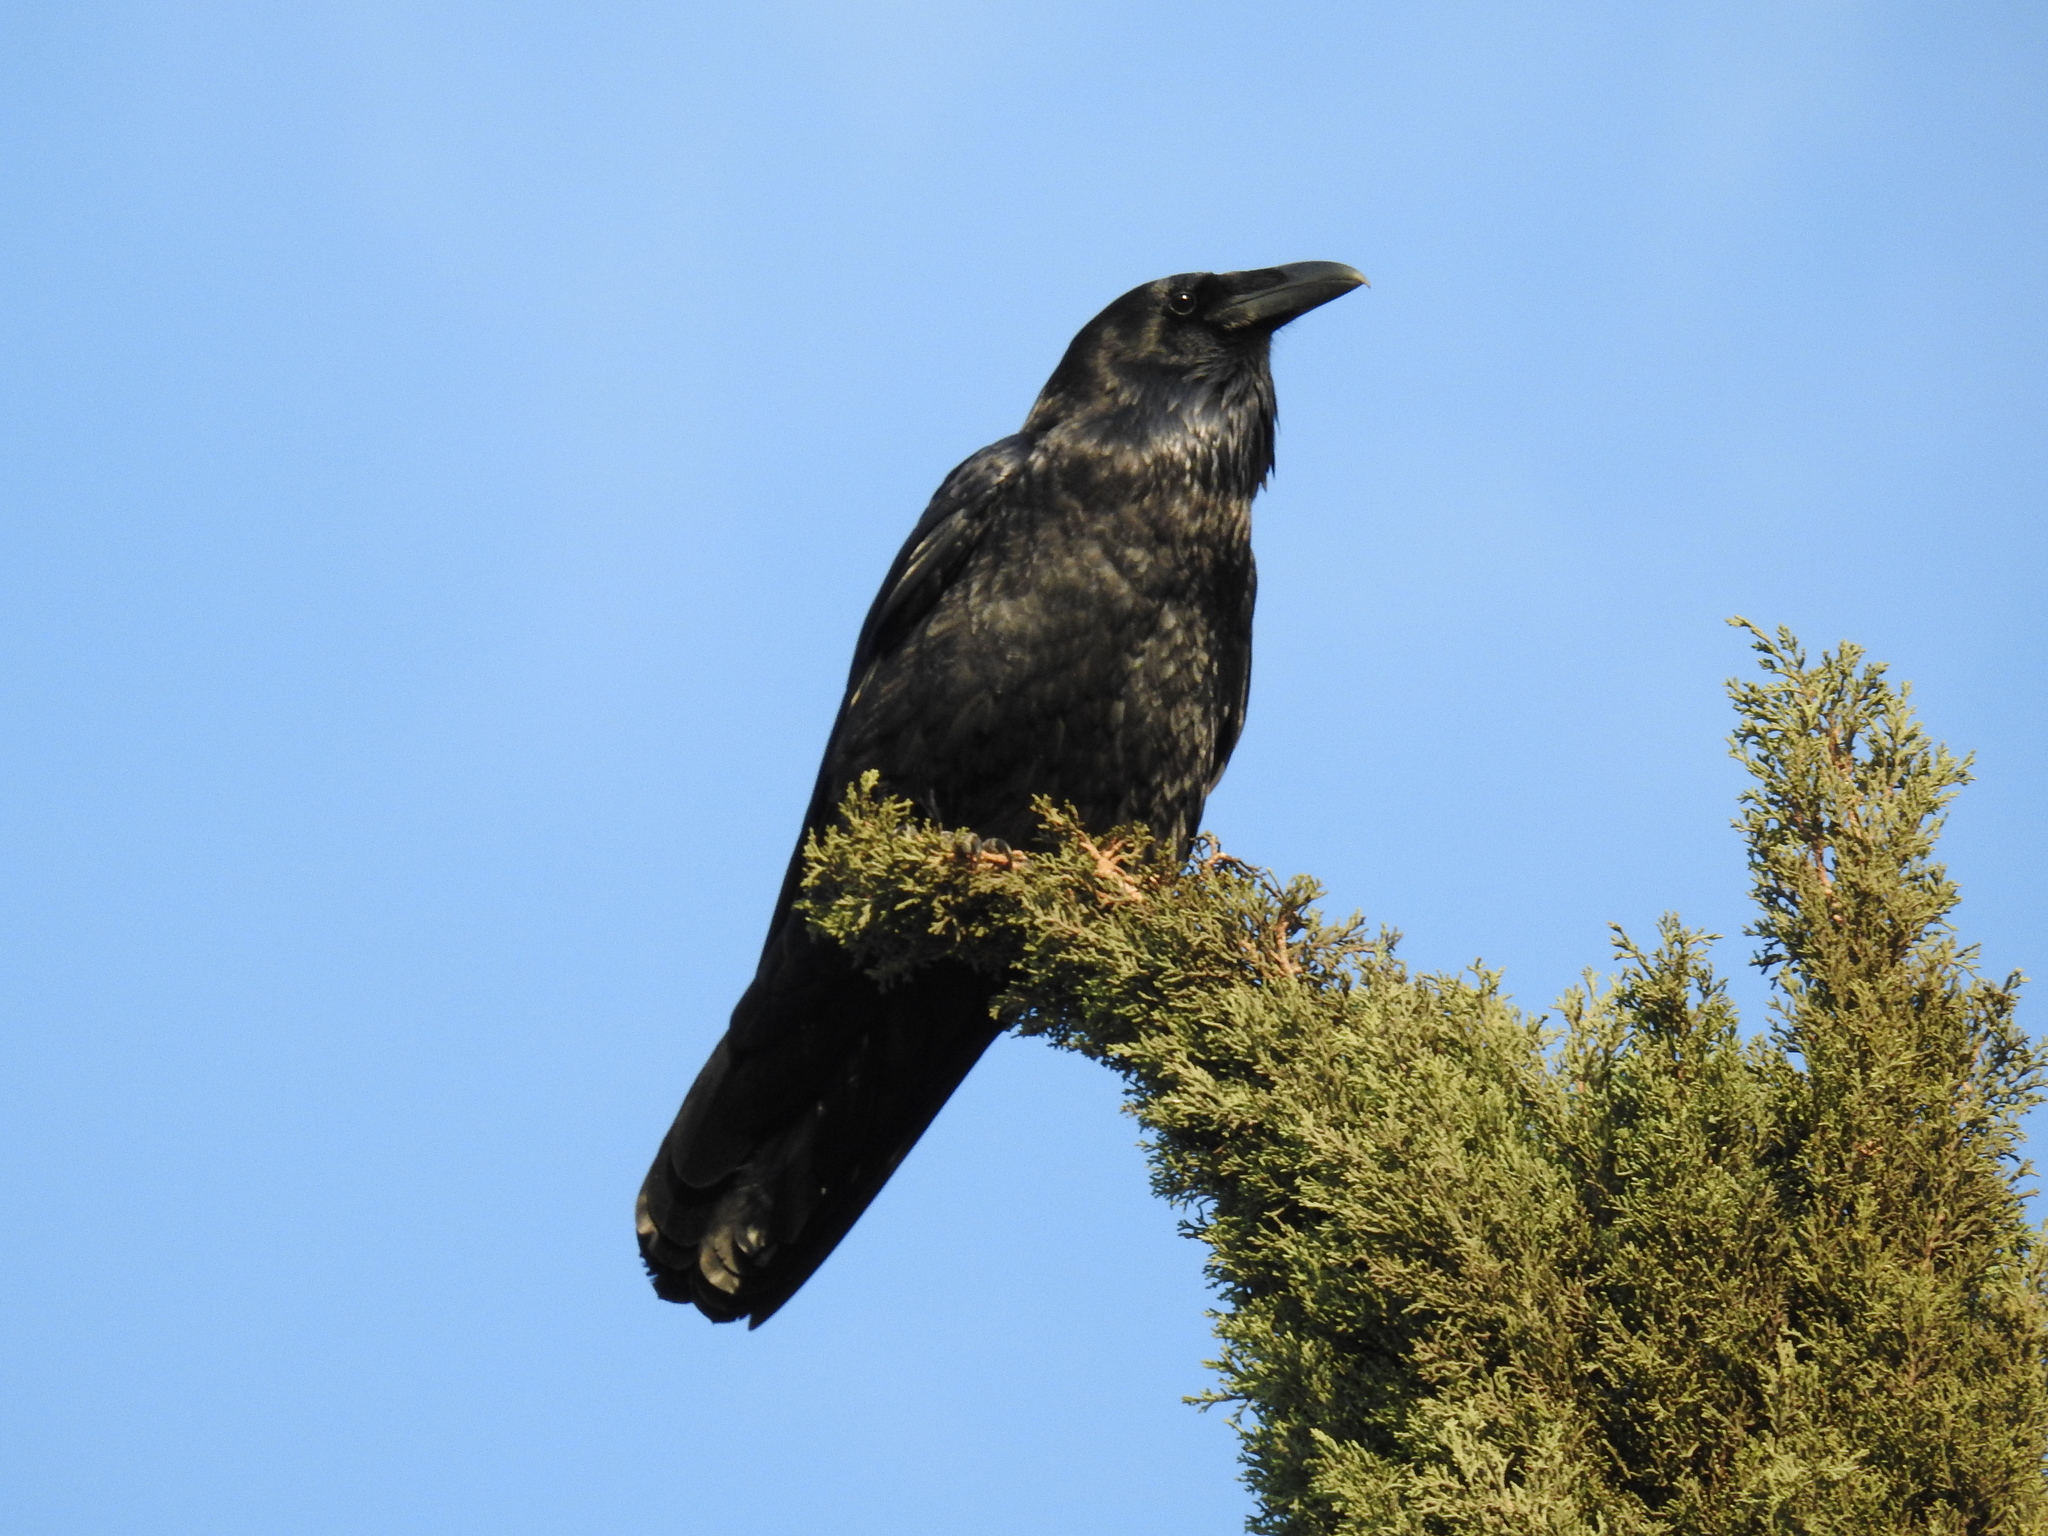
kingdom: Animalia
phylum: Chordata
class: Aves
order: Passeriformes
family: Corvidae
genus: Corvus
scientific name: Corvus corax
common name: Common raven
